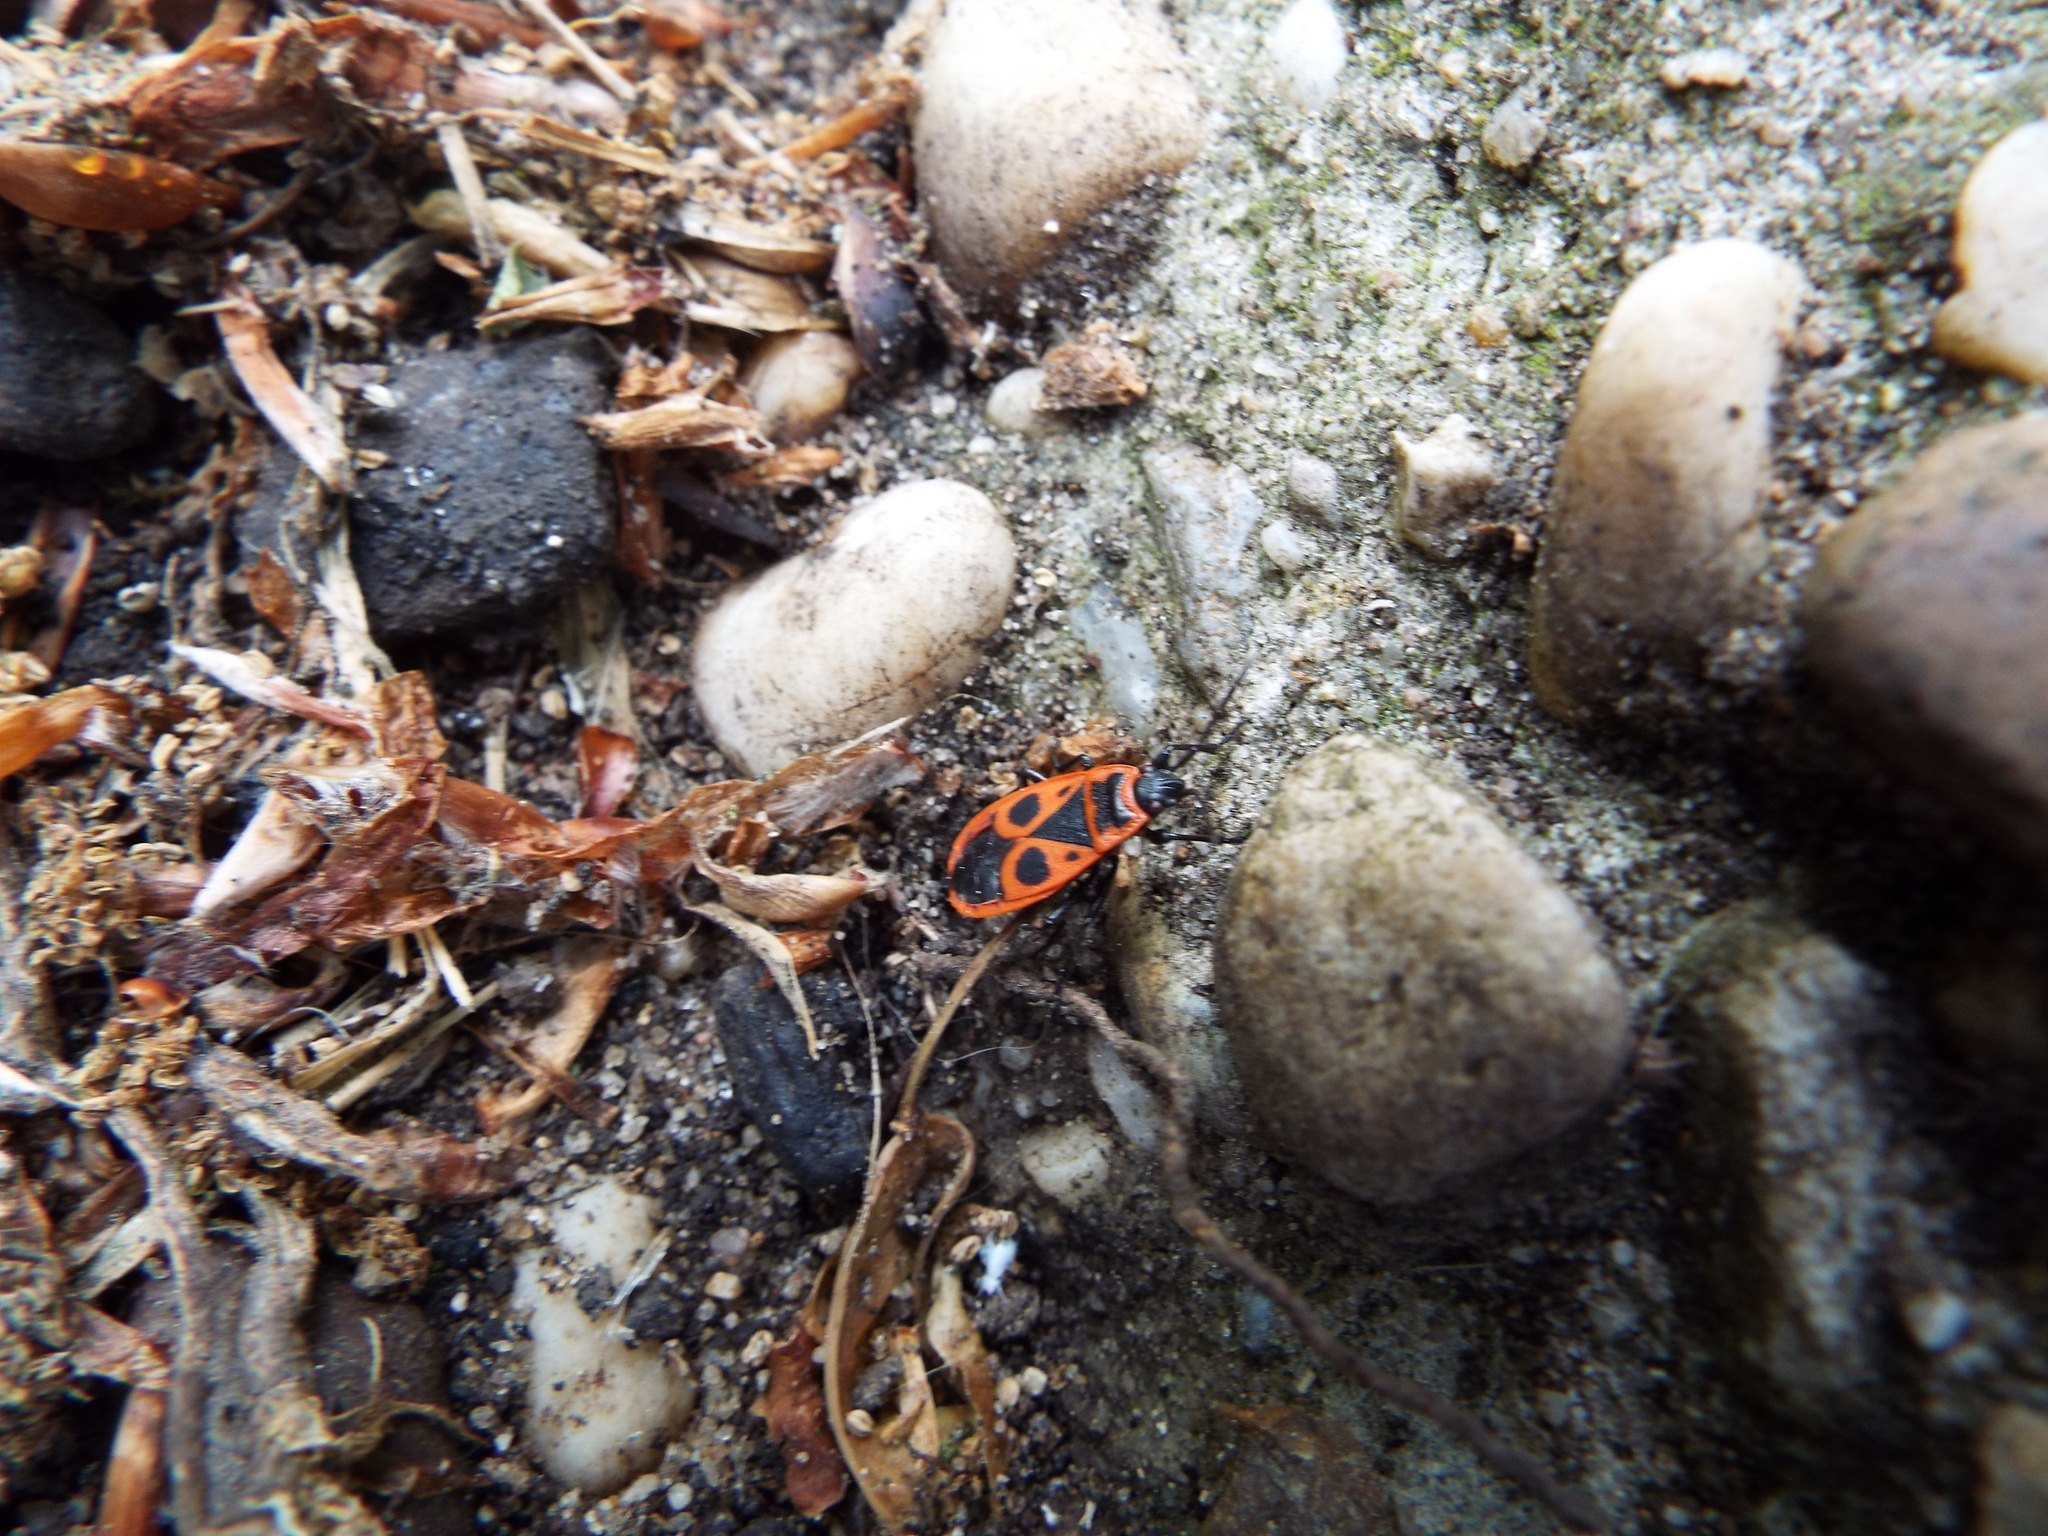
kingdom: Animalia
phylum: Arthropoda
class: Insecta
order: Hemiptera
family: Pyrrhocoridae
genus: Pyrrhocoris
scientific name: Pyrrhocoris apterus
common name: Firebug
